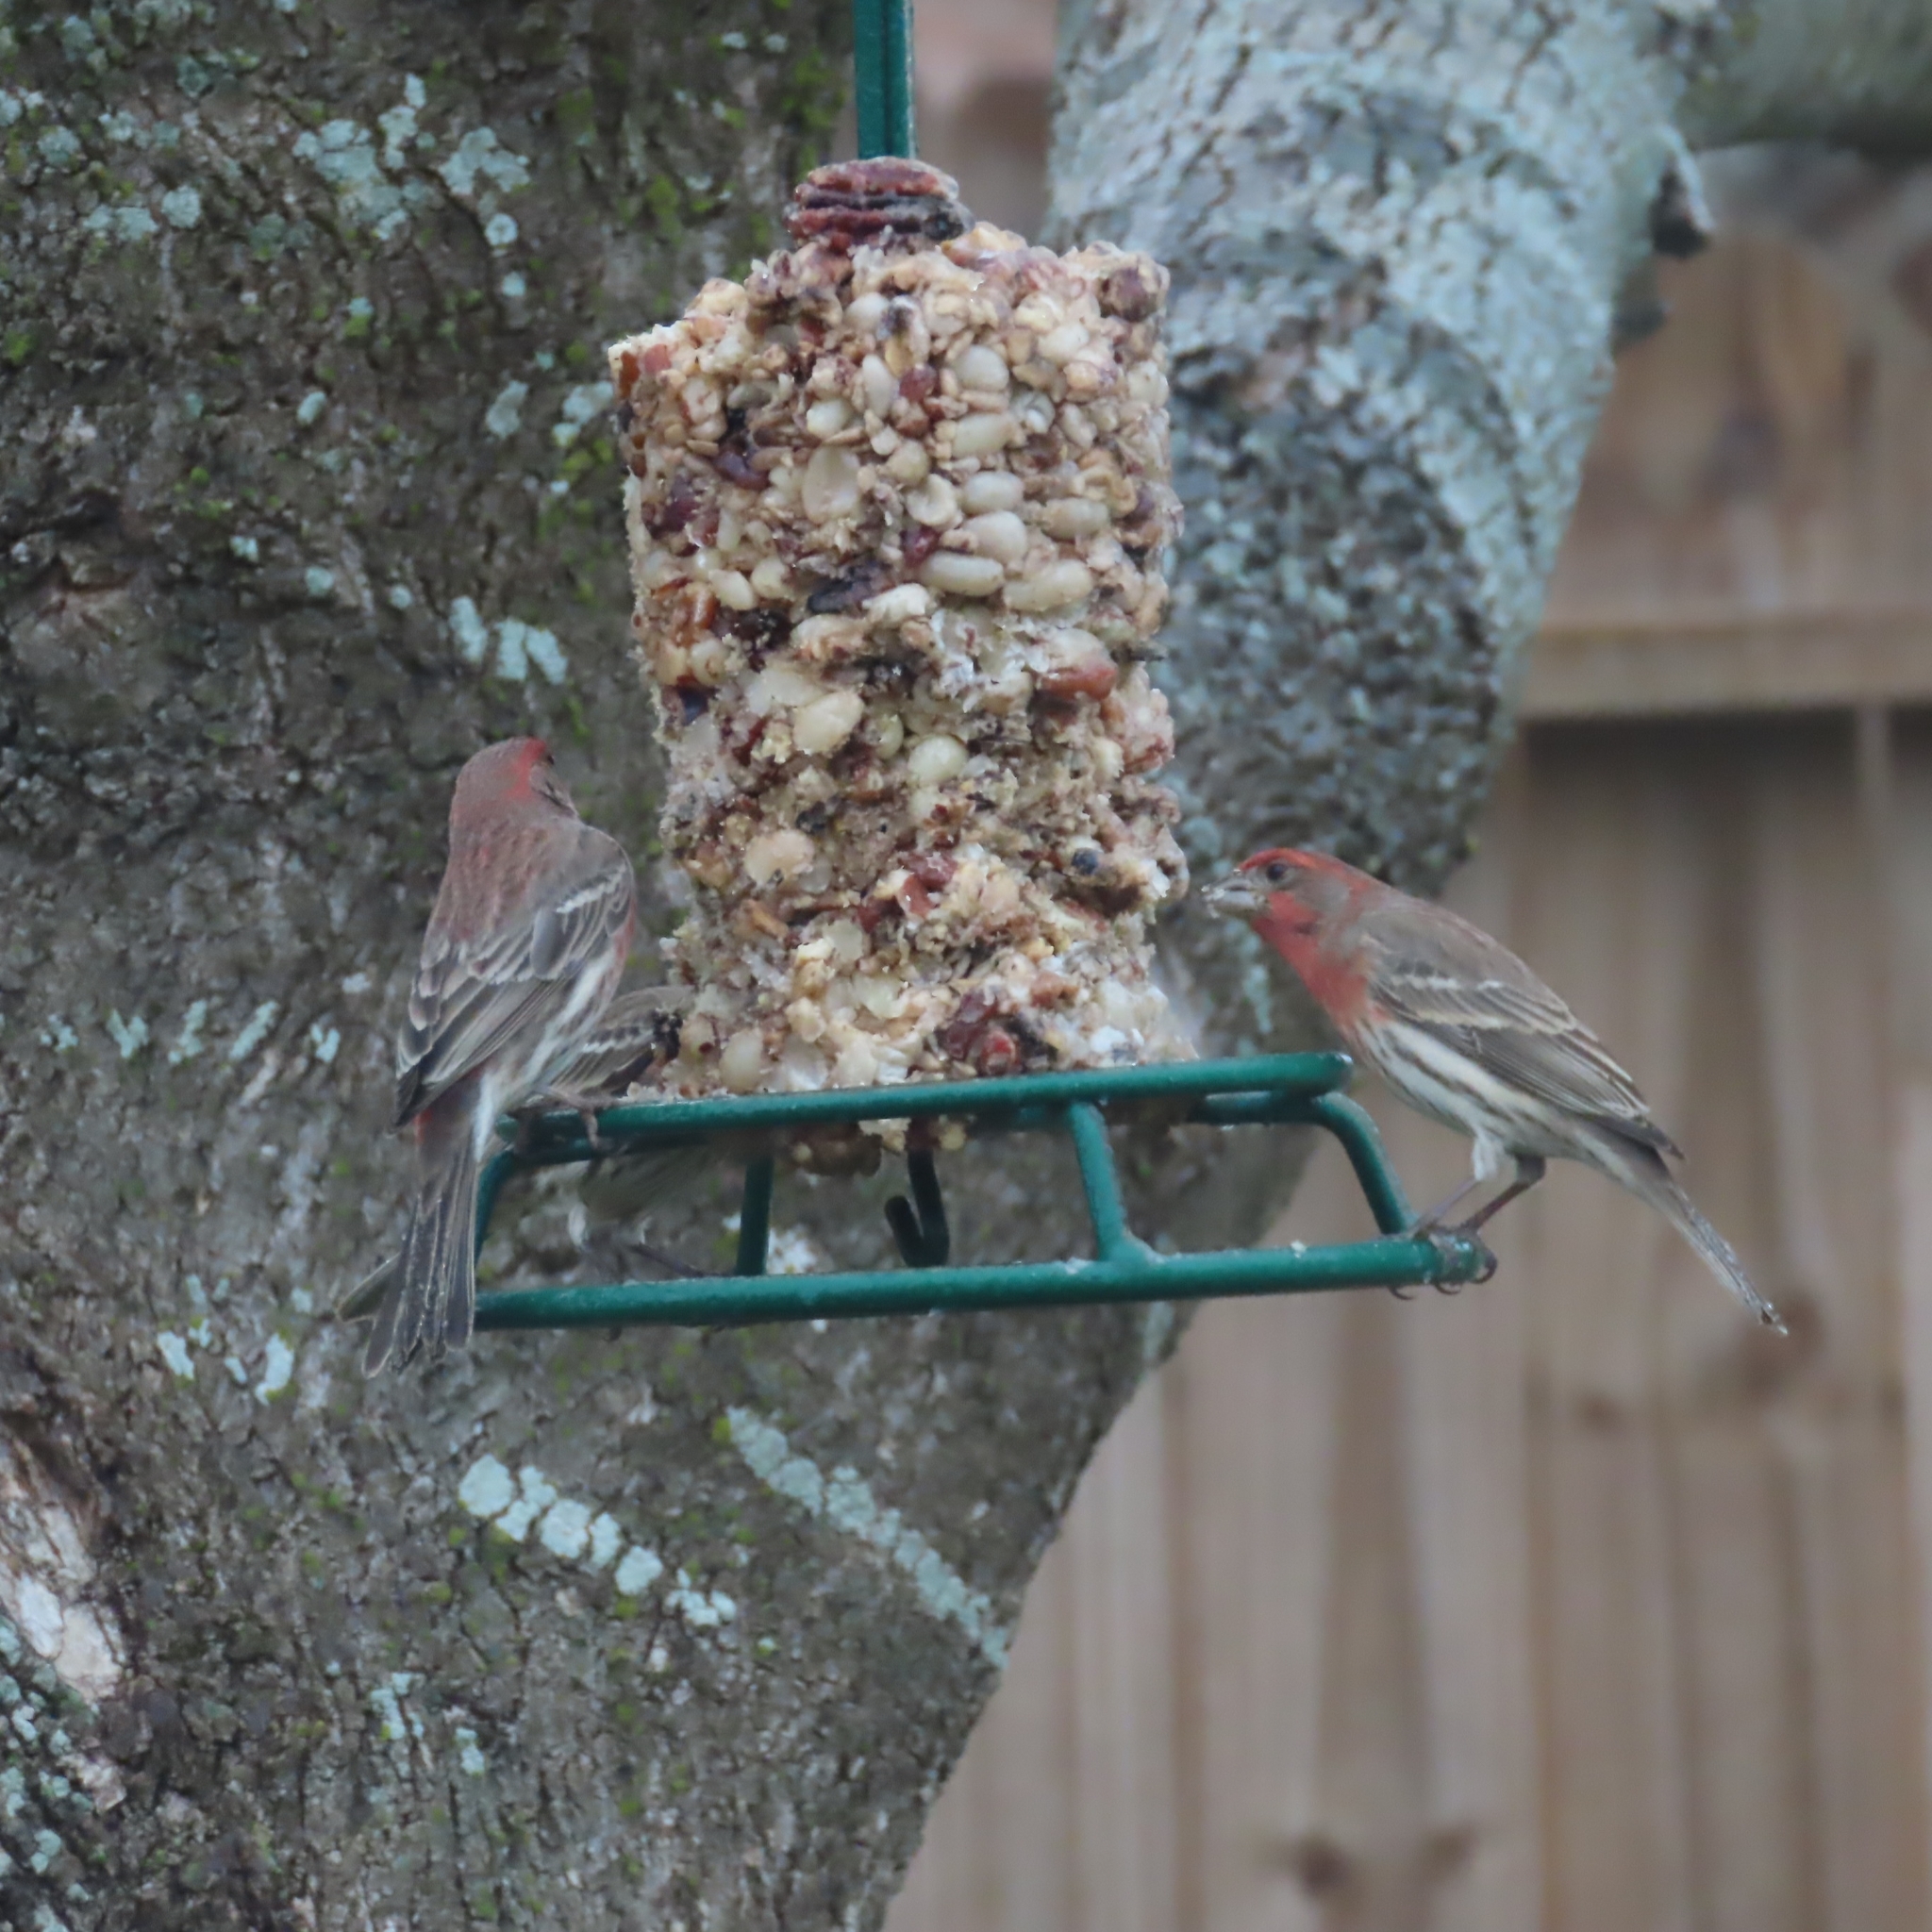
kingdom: Animalia
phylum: Chordata
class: Aves
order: Passeriformes
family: Fringillidae
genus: Haemorhous
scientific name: Haemorhous mexicanus
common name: House finch
